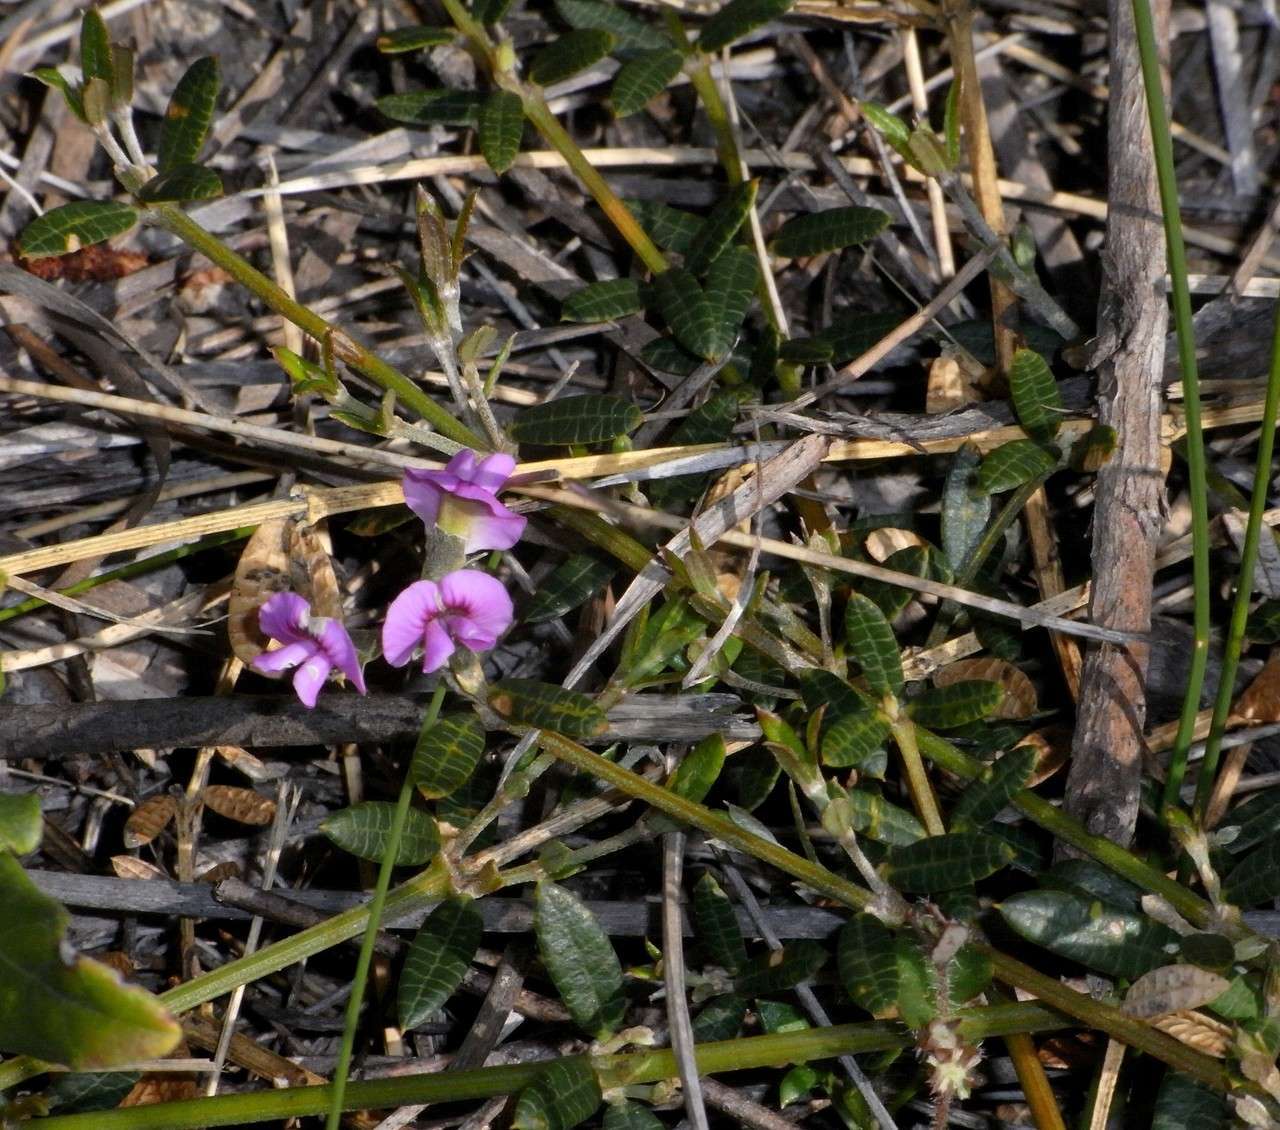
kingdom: Plantae
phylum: Tracheophyta
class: Magnoliopsida
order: Fabales
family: Fabaceae
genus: Mirbelia
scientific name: Mirbelia rubiifolia
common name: Heathy mirbelia
